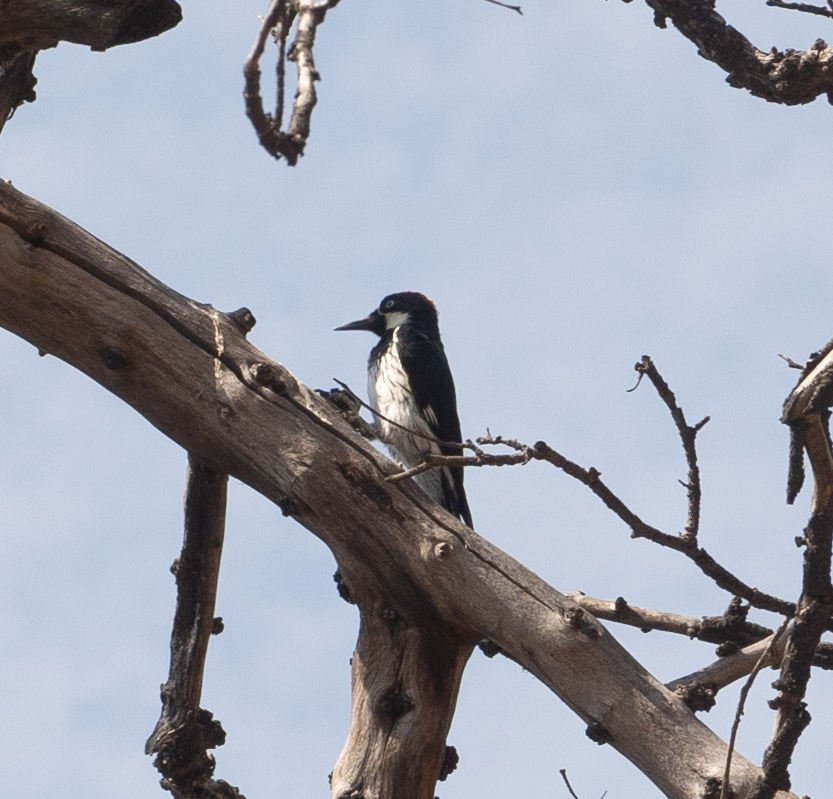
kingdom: Animalia
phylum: Chordata
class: Aves
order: Piciformes
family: Picidae
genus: Melanerpes
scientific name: Melanerpes formicivorus
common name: Acorn woodpecker
